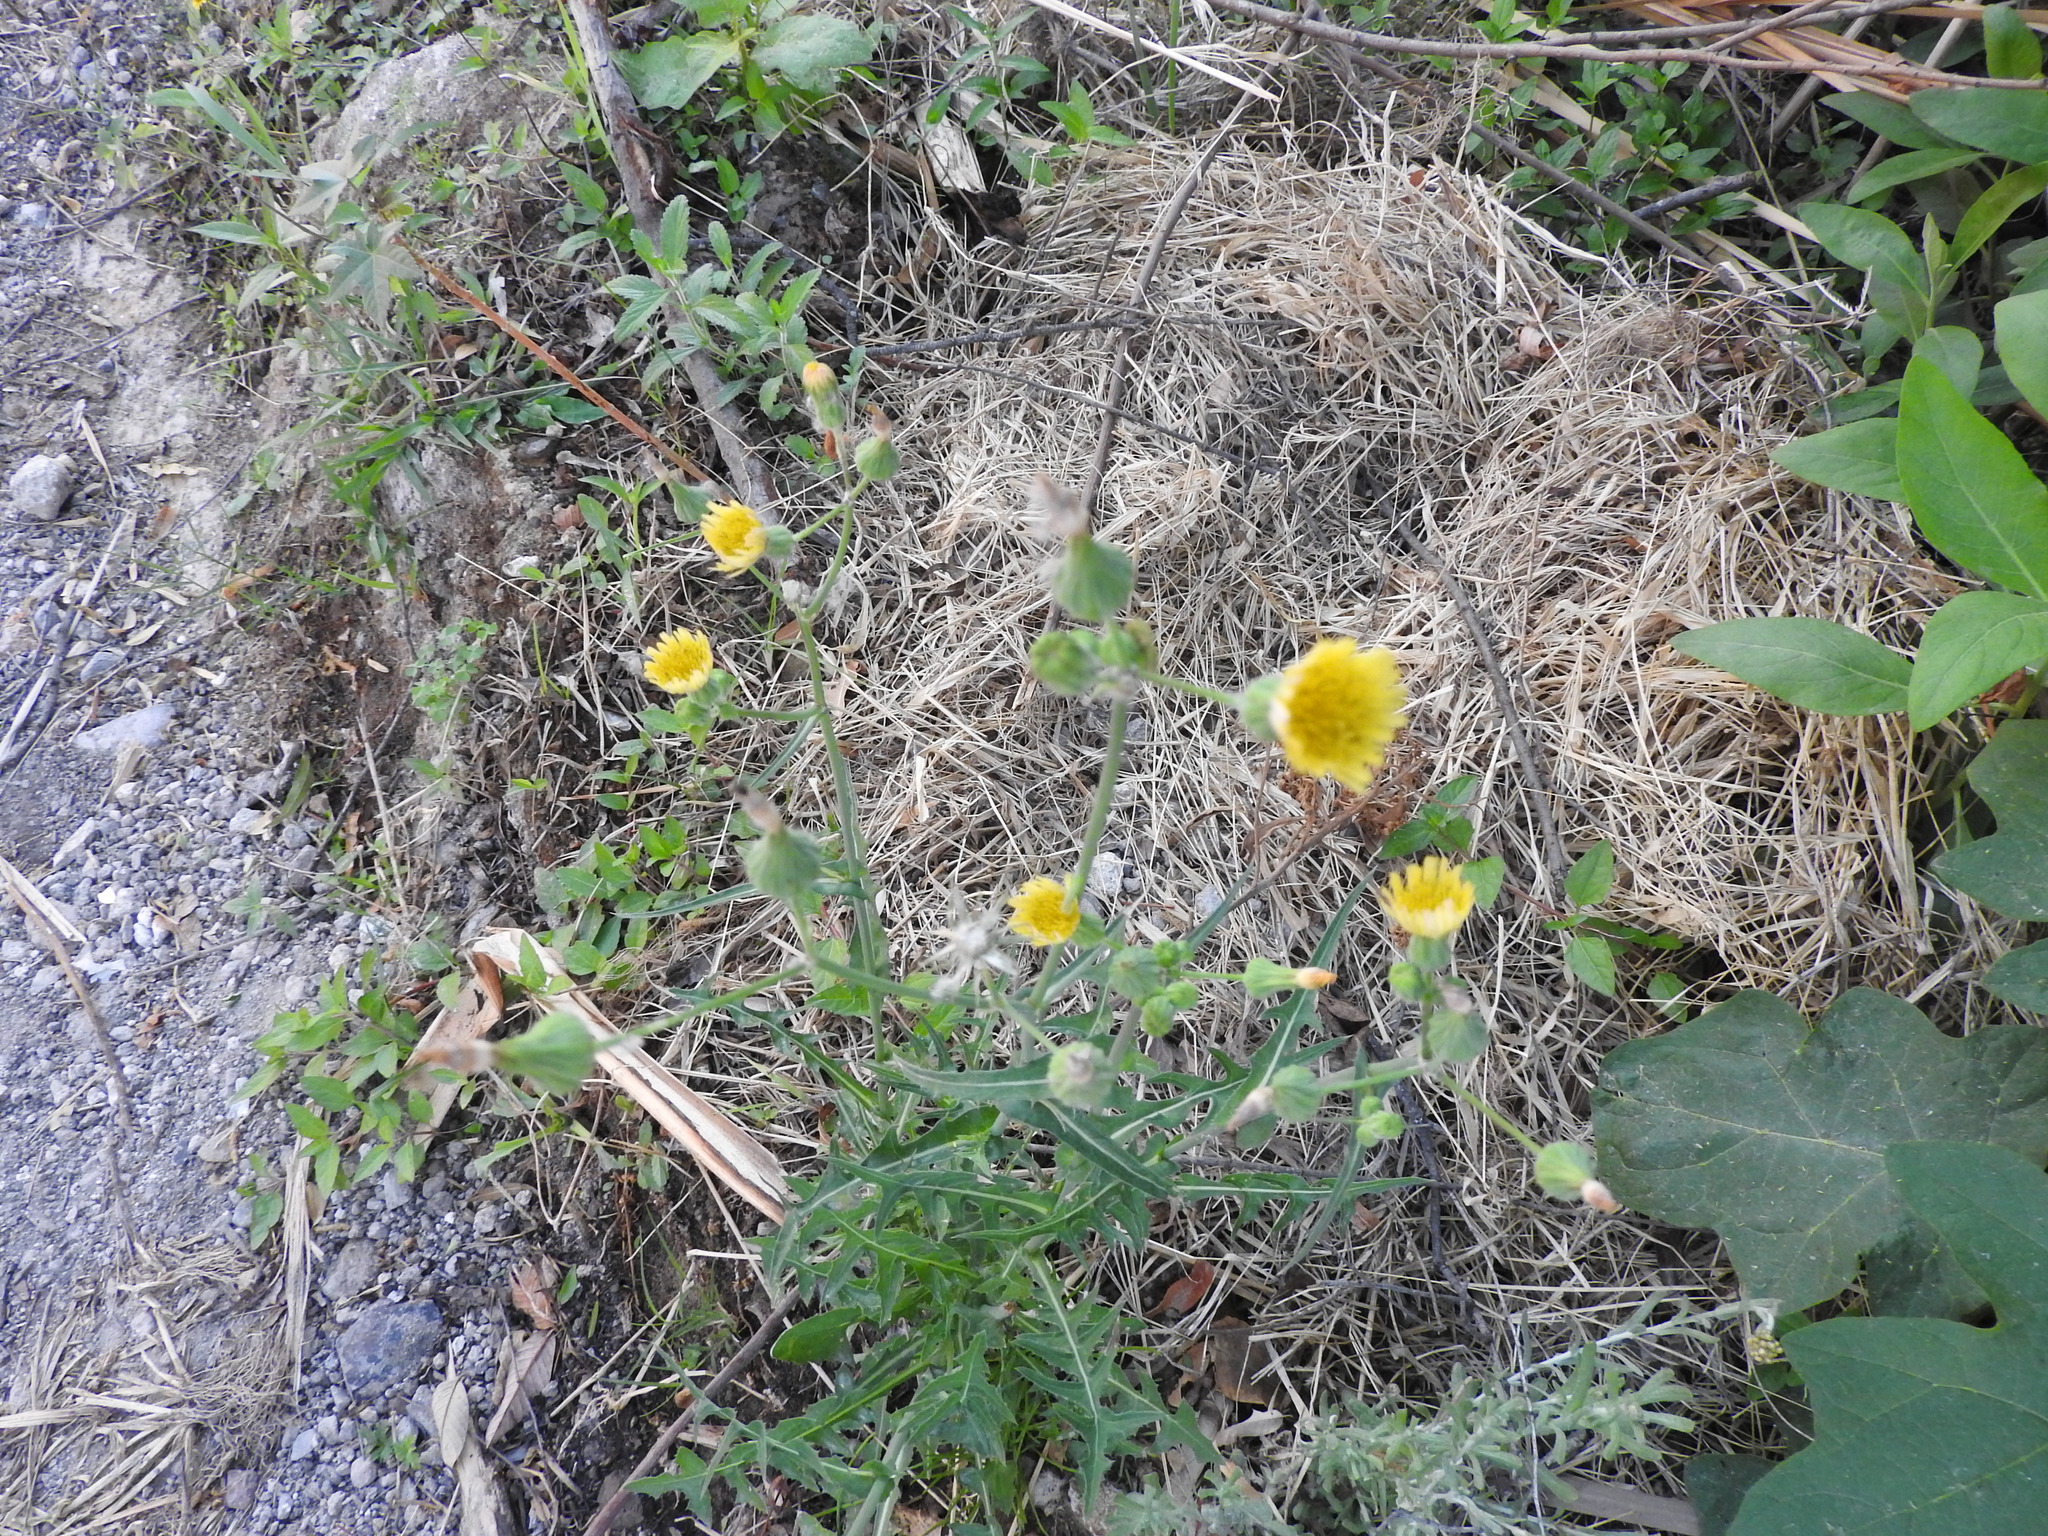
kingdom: Plantae
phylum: Tracheophyta
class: Magnoliopsida
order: Asterales
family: Asteraceae
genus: Sonchus
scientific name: Sonchus oleraceus
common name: Common sowthistle
